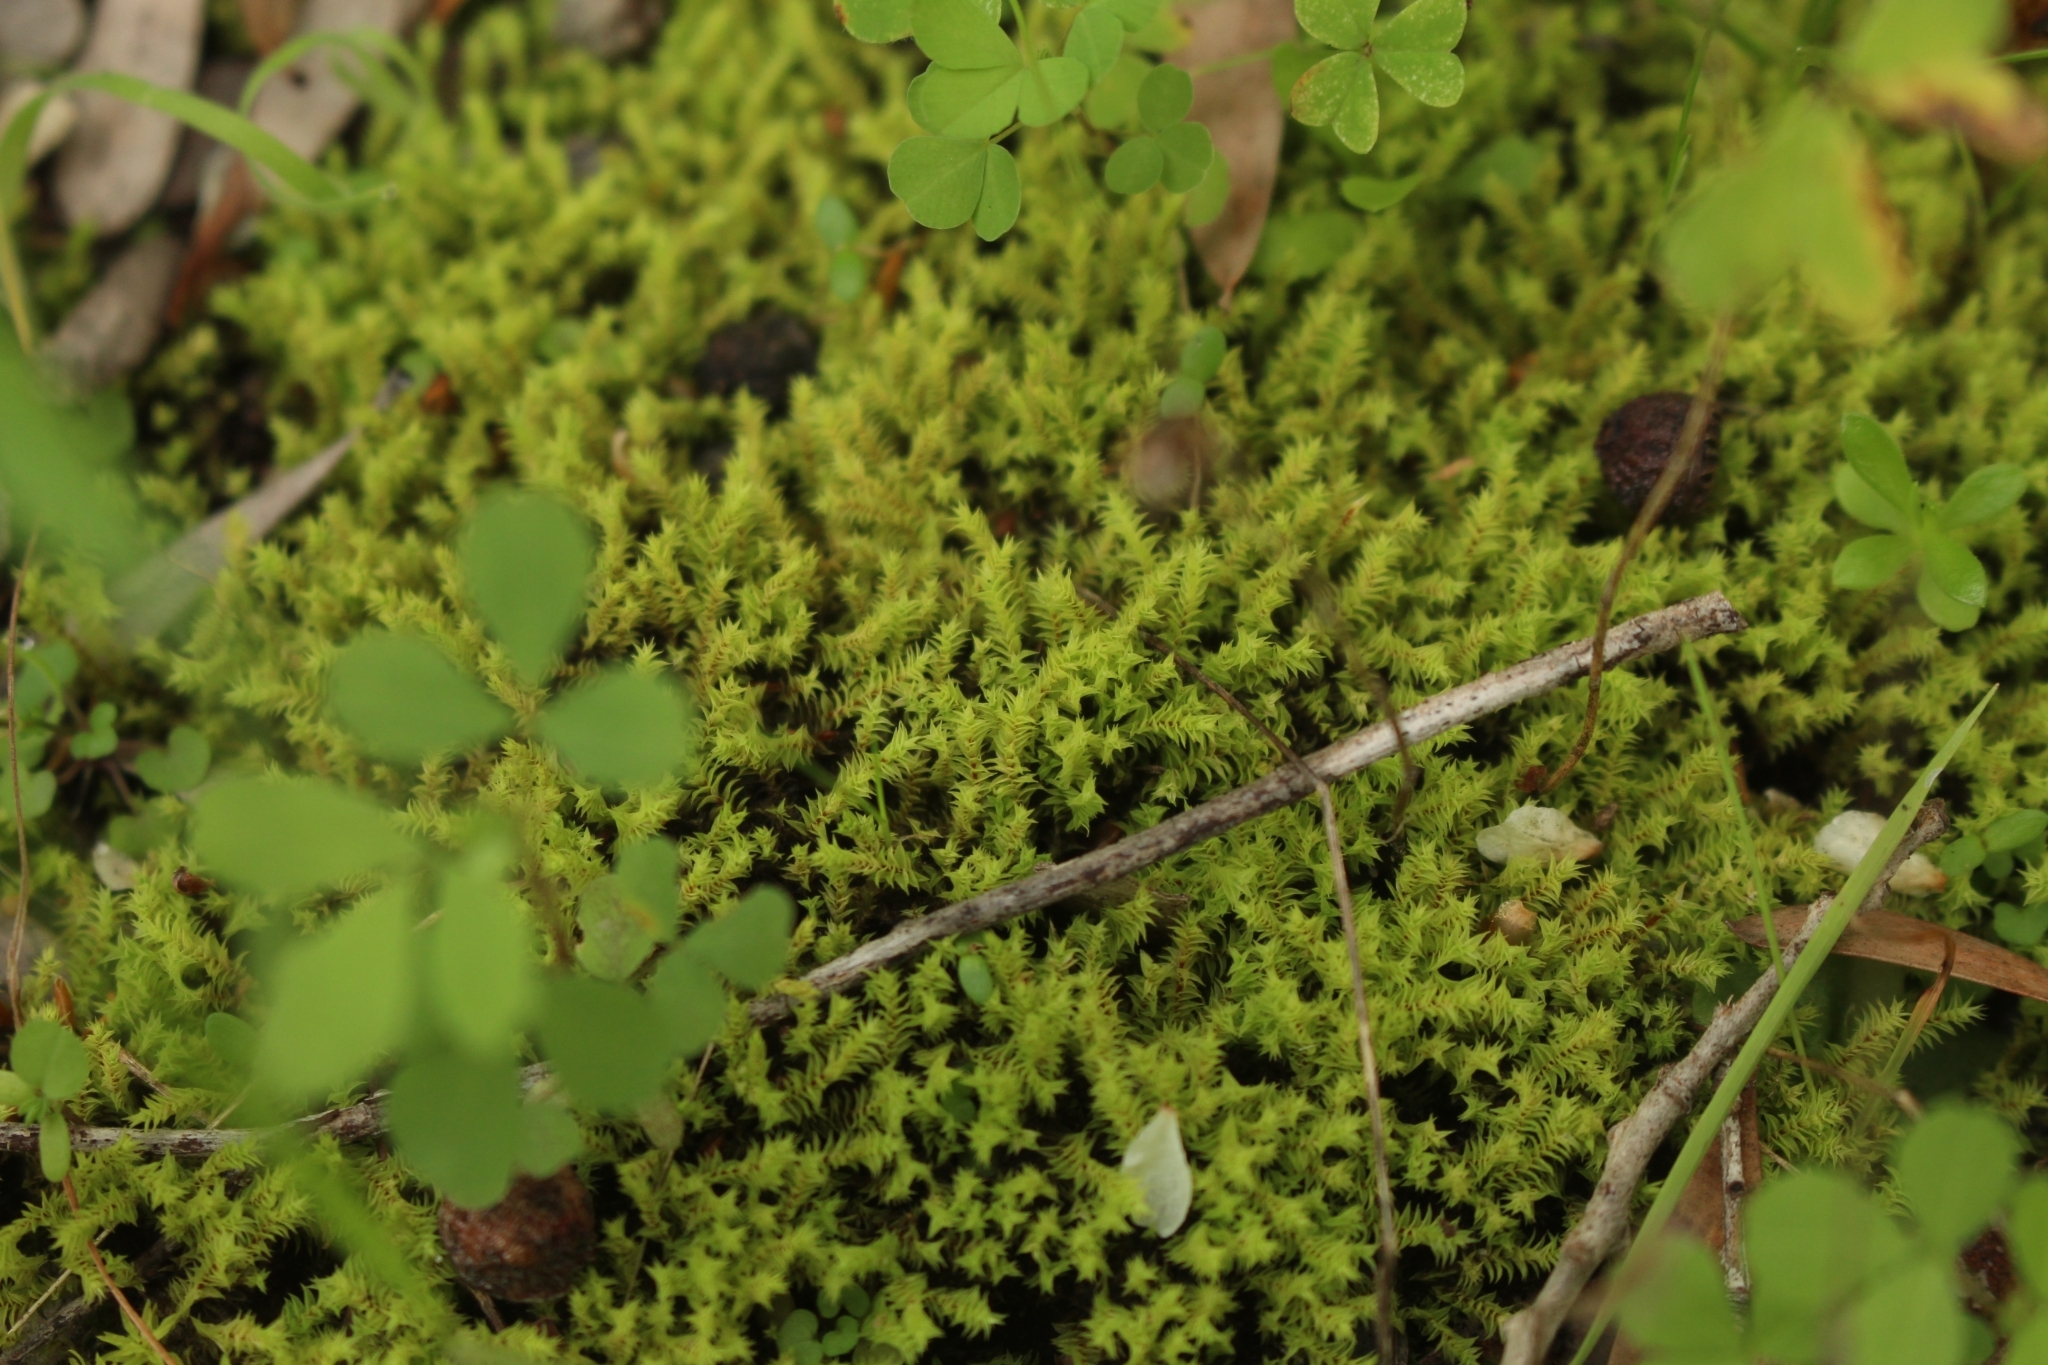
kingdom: Plantae
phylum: Bryophyta
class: Bryopsida
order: Pottiales
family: Pottiaceae
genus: Triquetrella
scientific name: Triquetrella papillata
